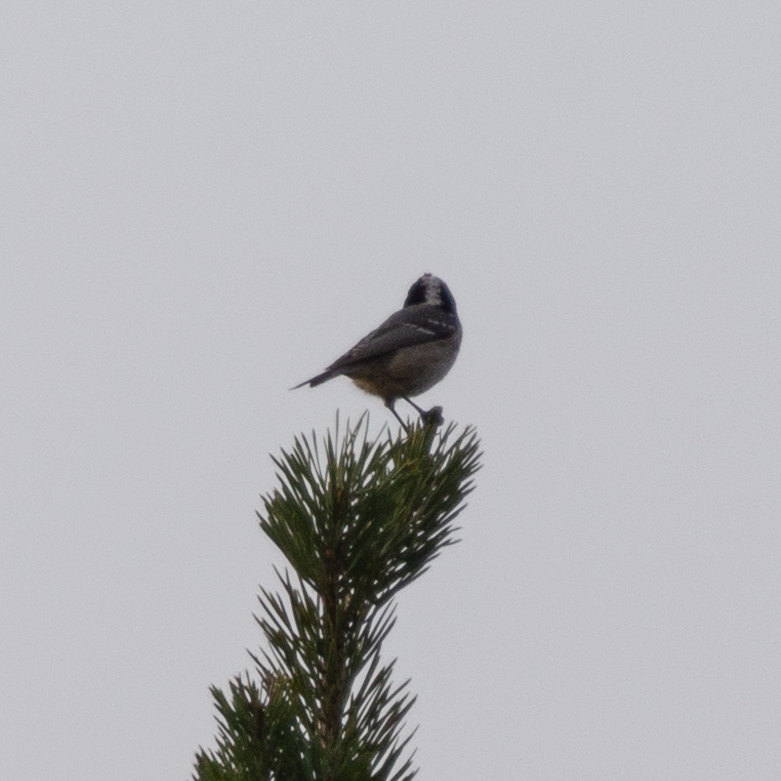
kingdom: Animalia
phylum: Chordata
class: Aves
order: Passeriformes
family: Paridae
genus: Periparus
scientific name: Periparus ater
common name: Coal tit
